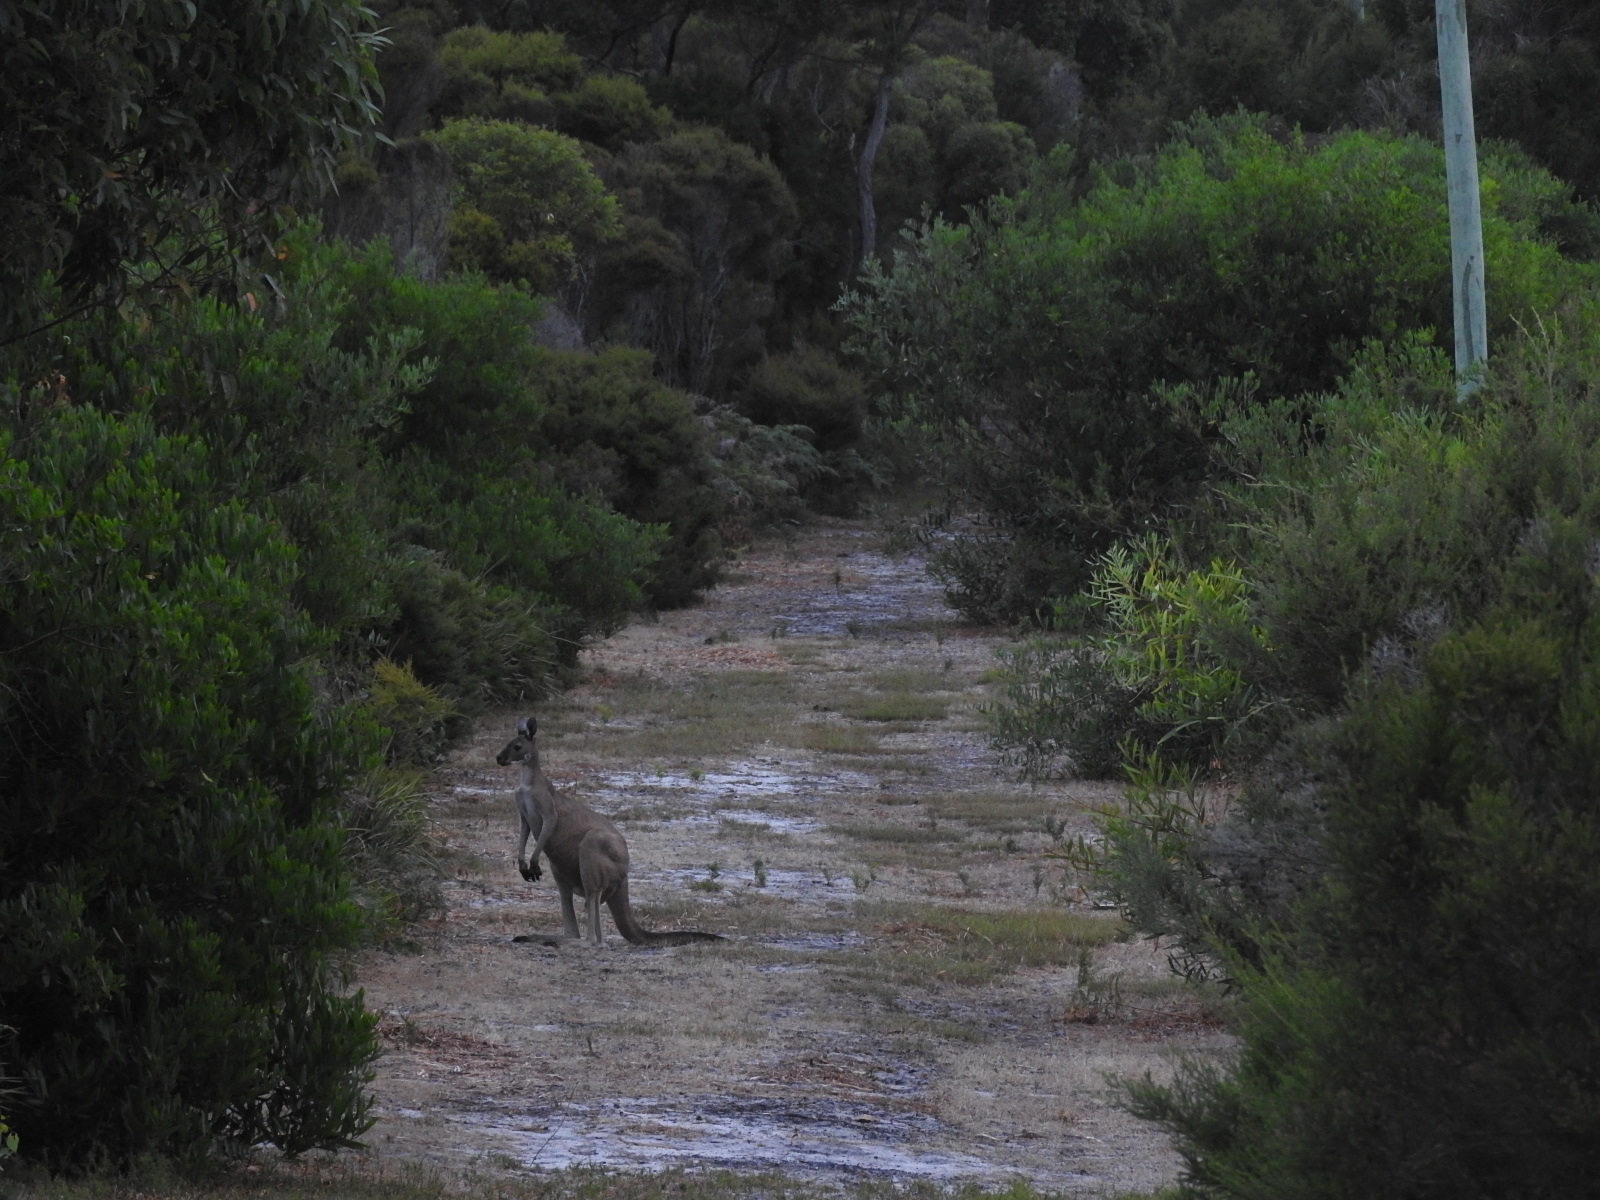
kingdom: Animalia
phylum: Chordata
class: Mammalia
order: Diprotodontia
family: Macropodidae
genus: Macropus
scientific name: Macropus fuliginosus
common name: Western grey kangaroo
